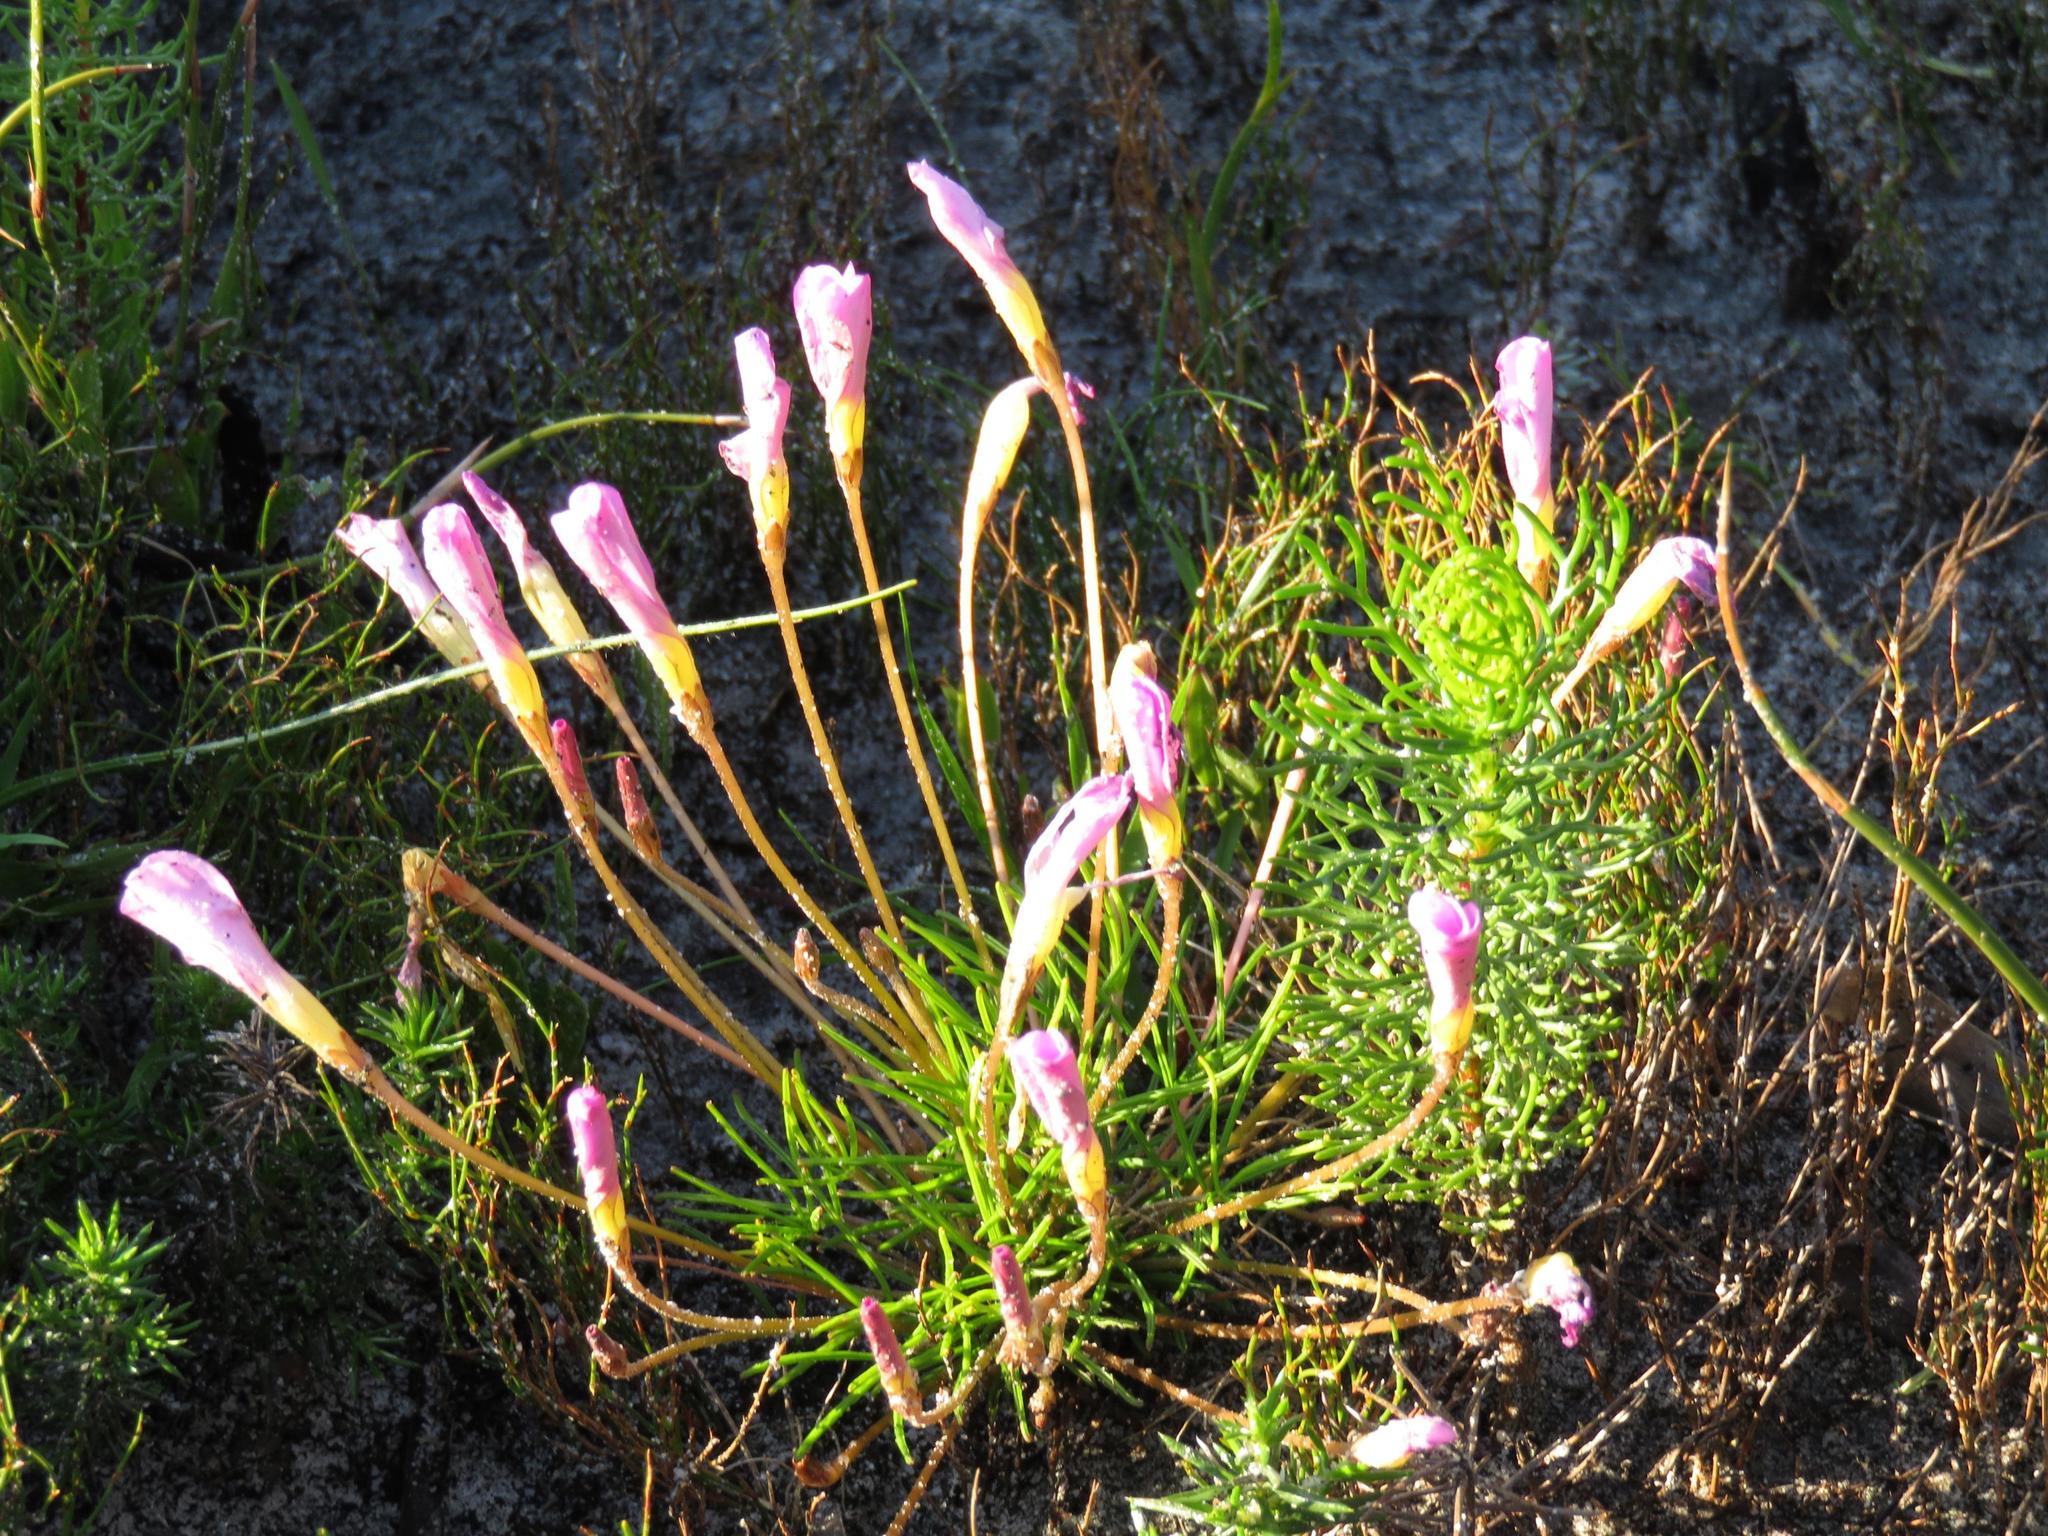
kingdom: Plantae
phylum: Tracheophyta
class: Magnoliopsida
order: Oxalidales
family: Oxalidaceae
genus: Oxalis
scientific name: Oxalis polyphylla
